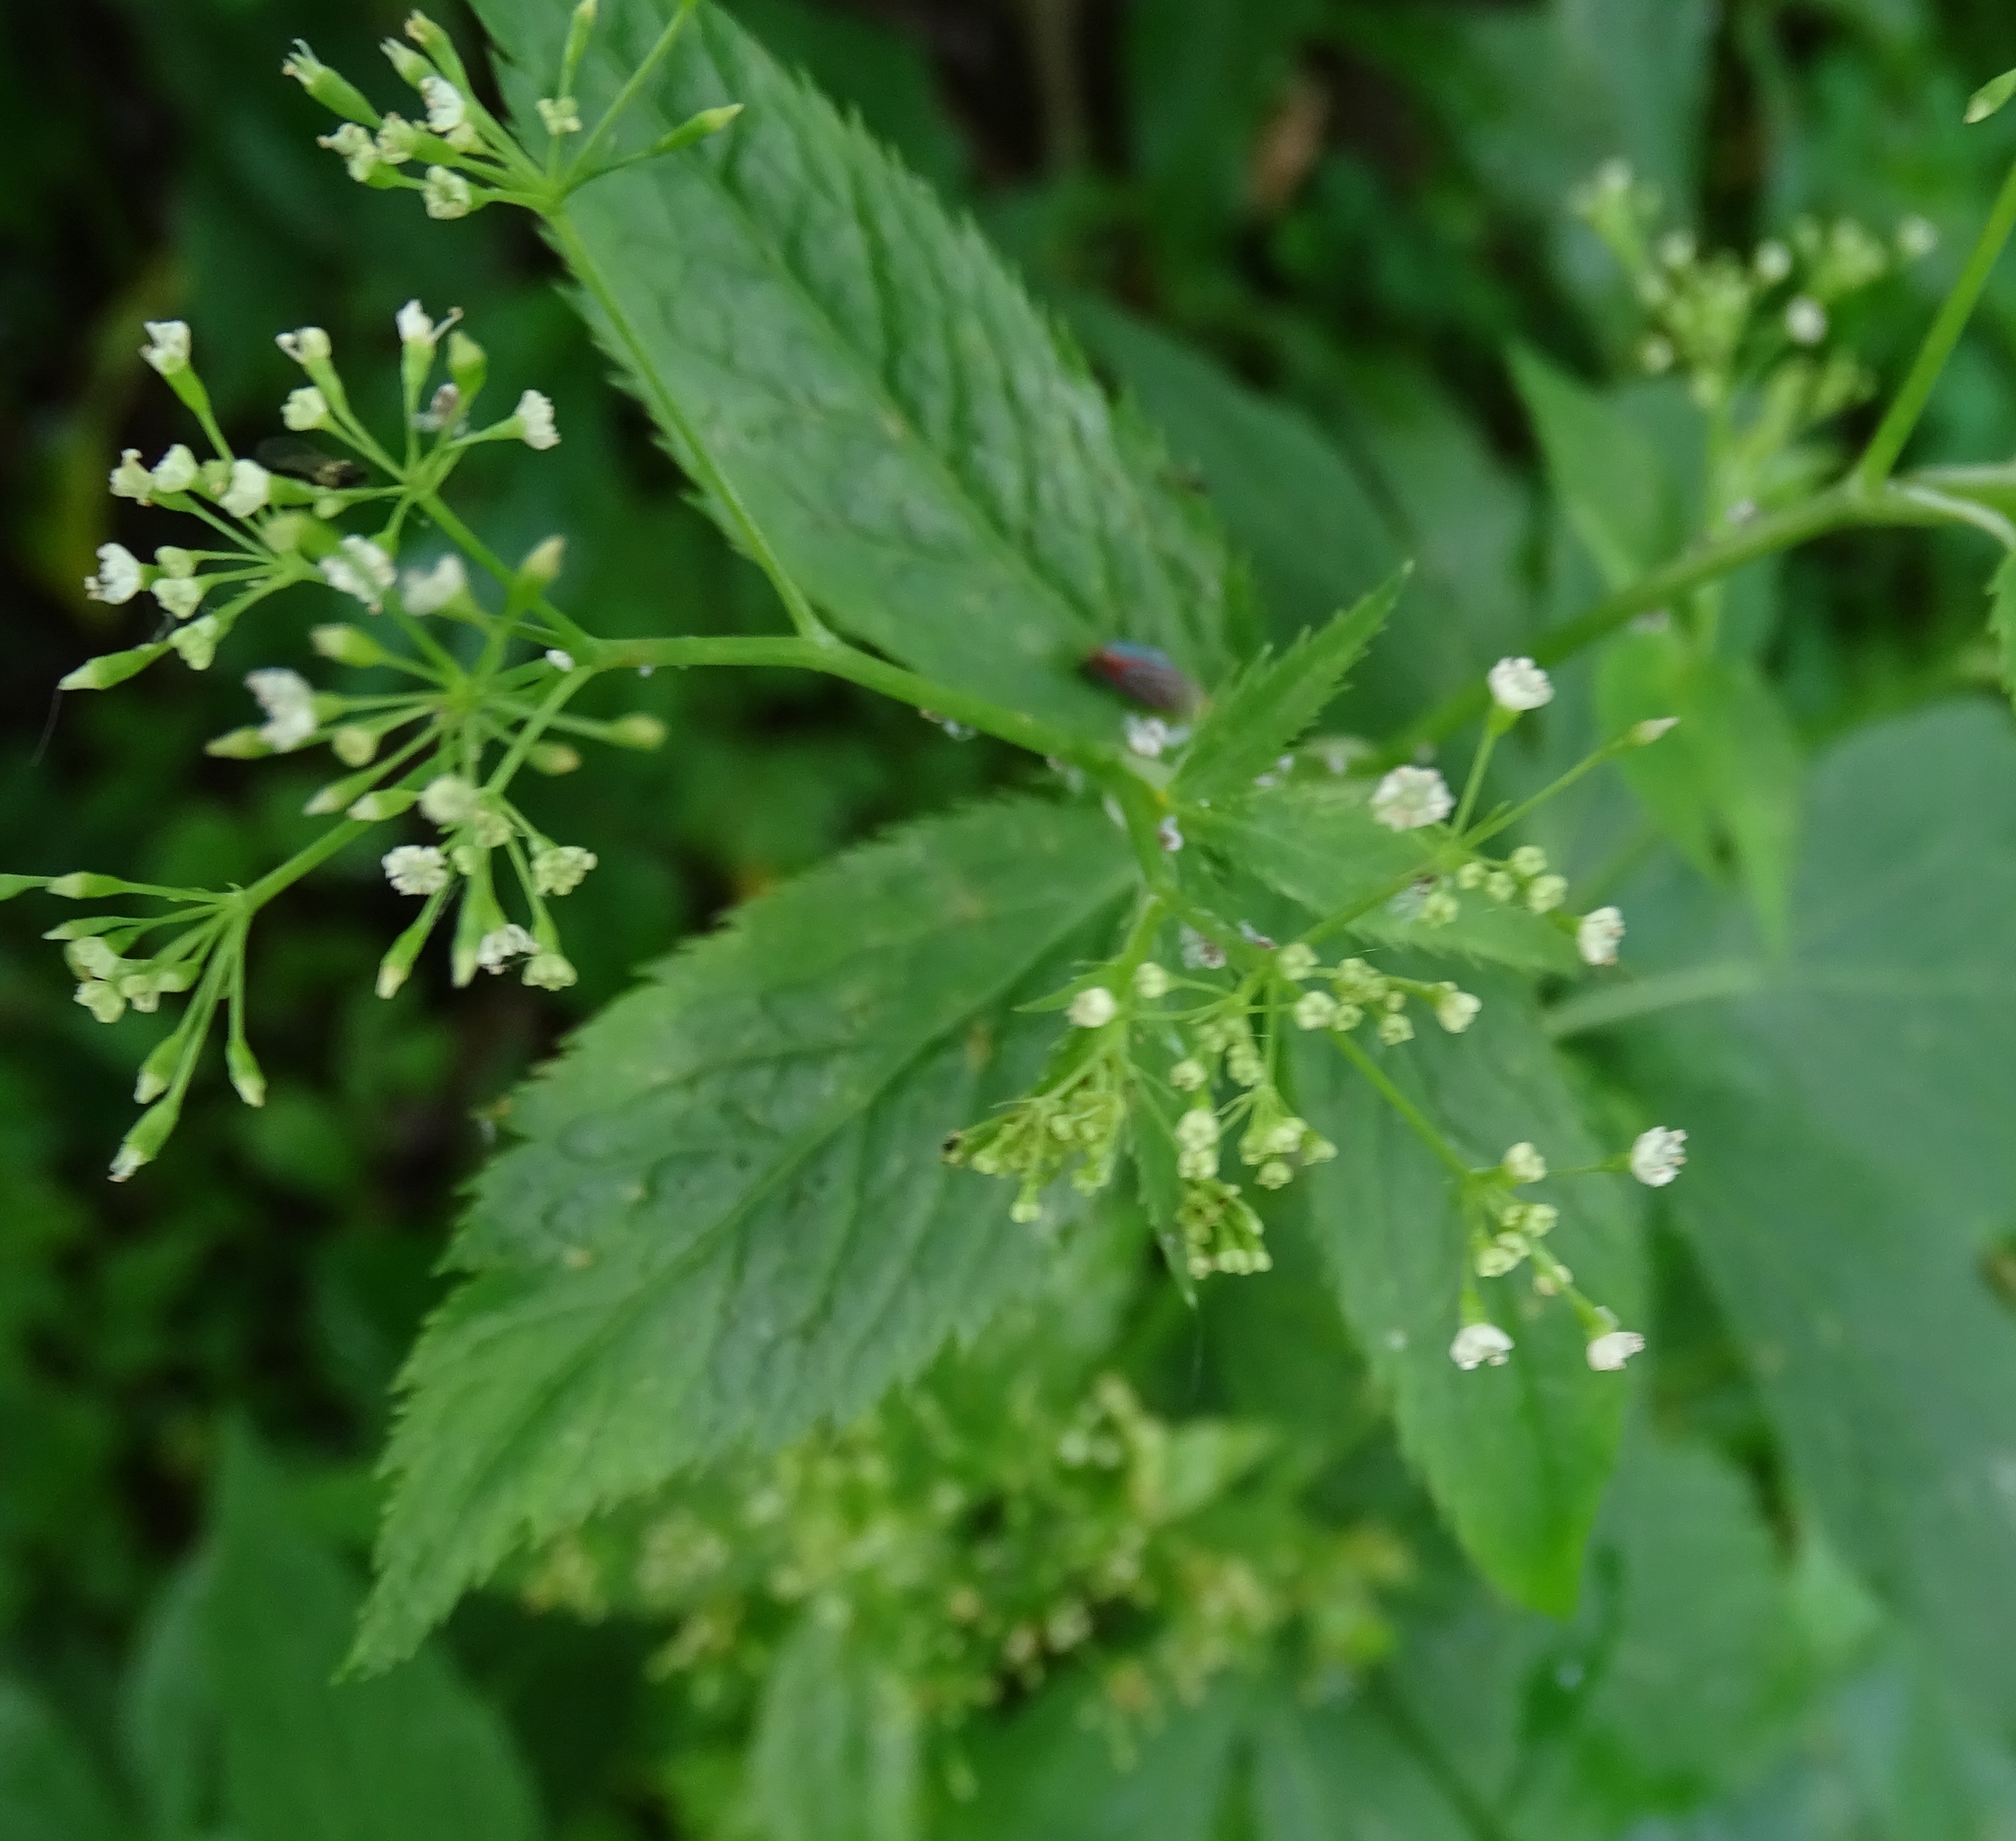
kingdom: Plantae
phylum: Tracheophyta
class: Magnoliopsida
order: Apiales
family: Apiaceae
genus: Cryptotaenia
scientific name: Cryptotaenia canadensis
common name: Honewort
